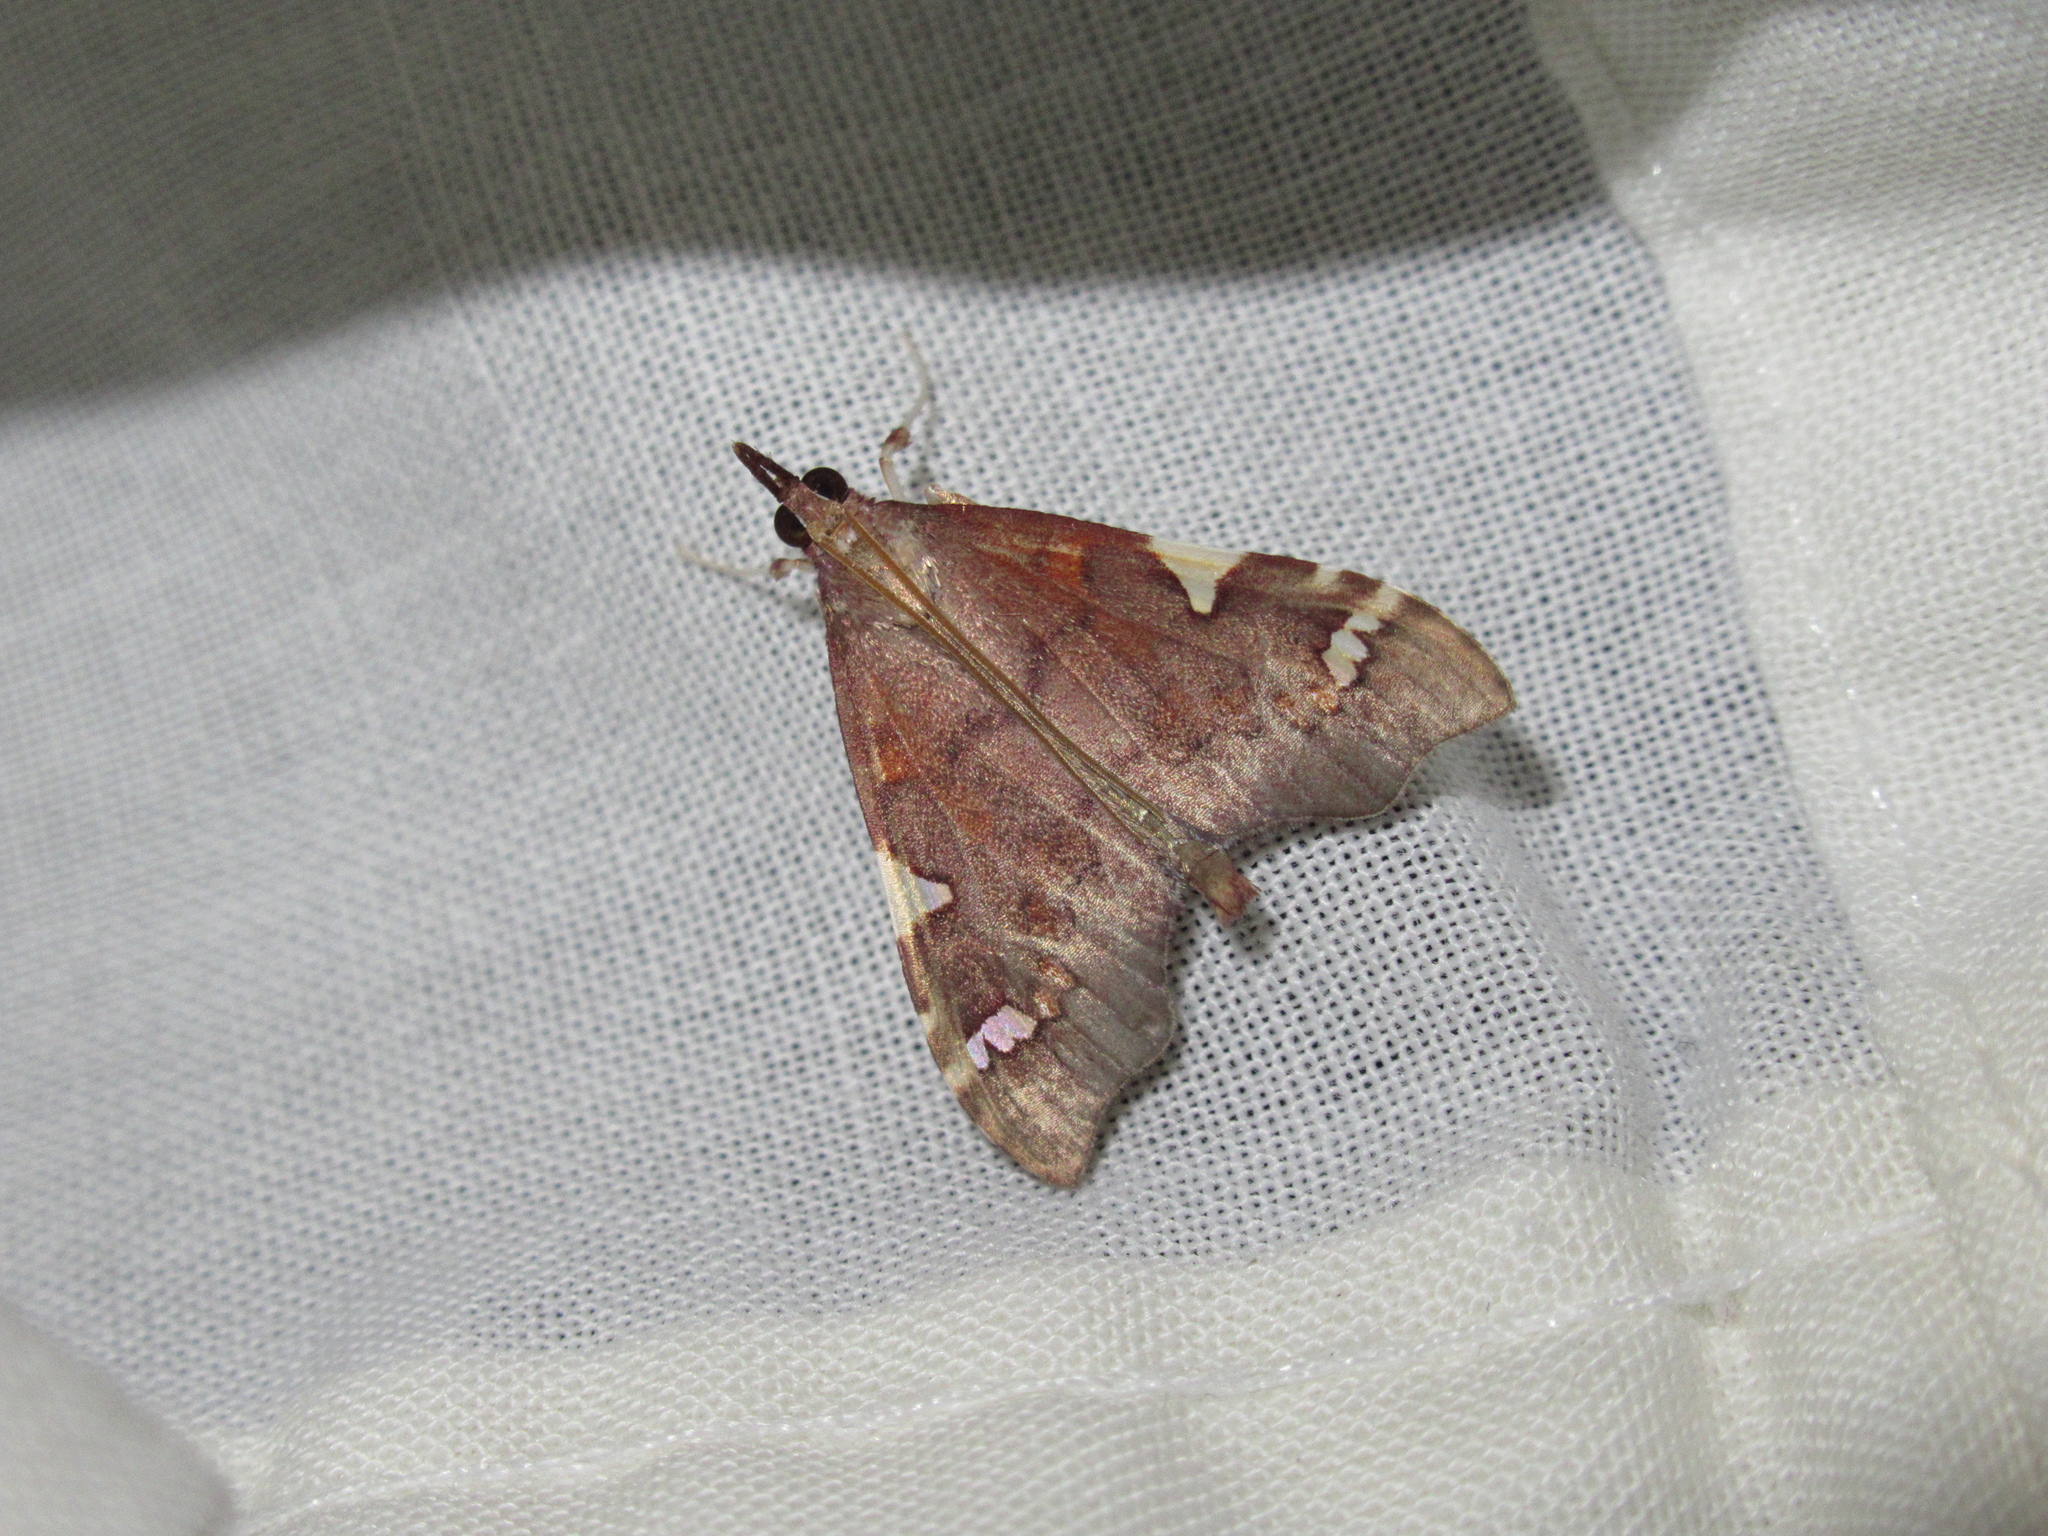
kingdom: Animalia
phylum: Arthropoda
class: Insecta
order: Lepidoptera
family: Crambidae
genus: Deana
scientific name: Deana hybreasalis
